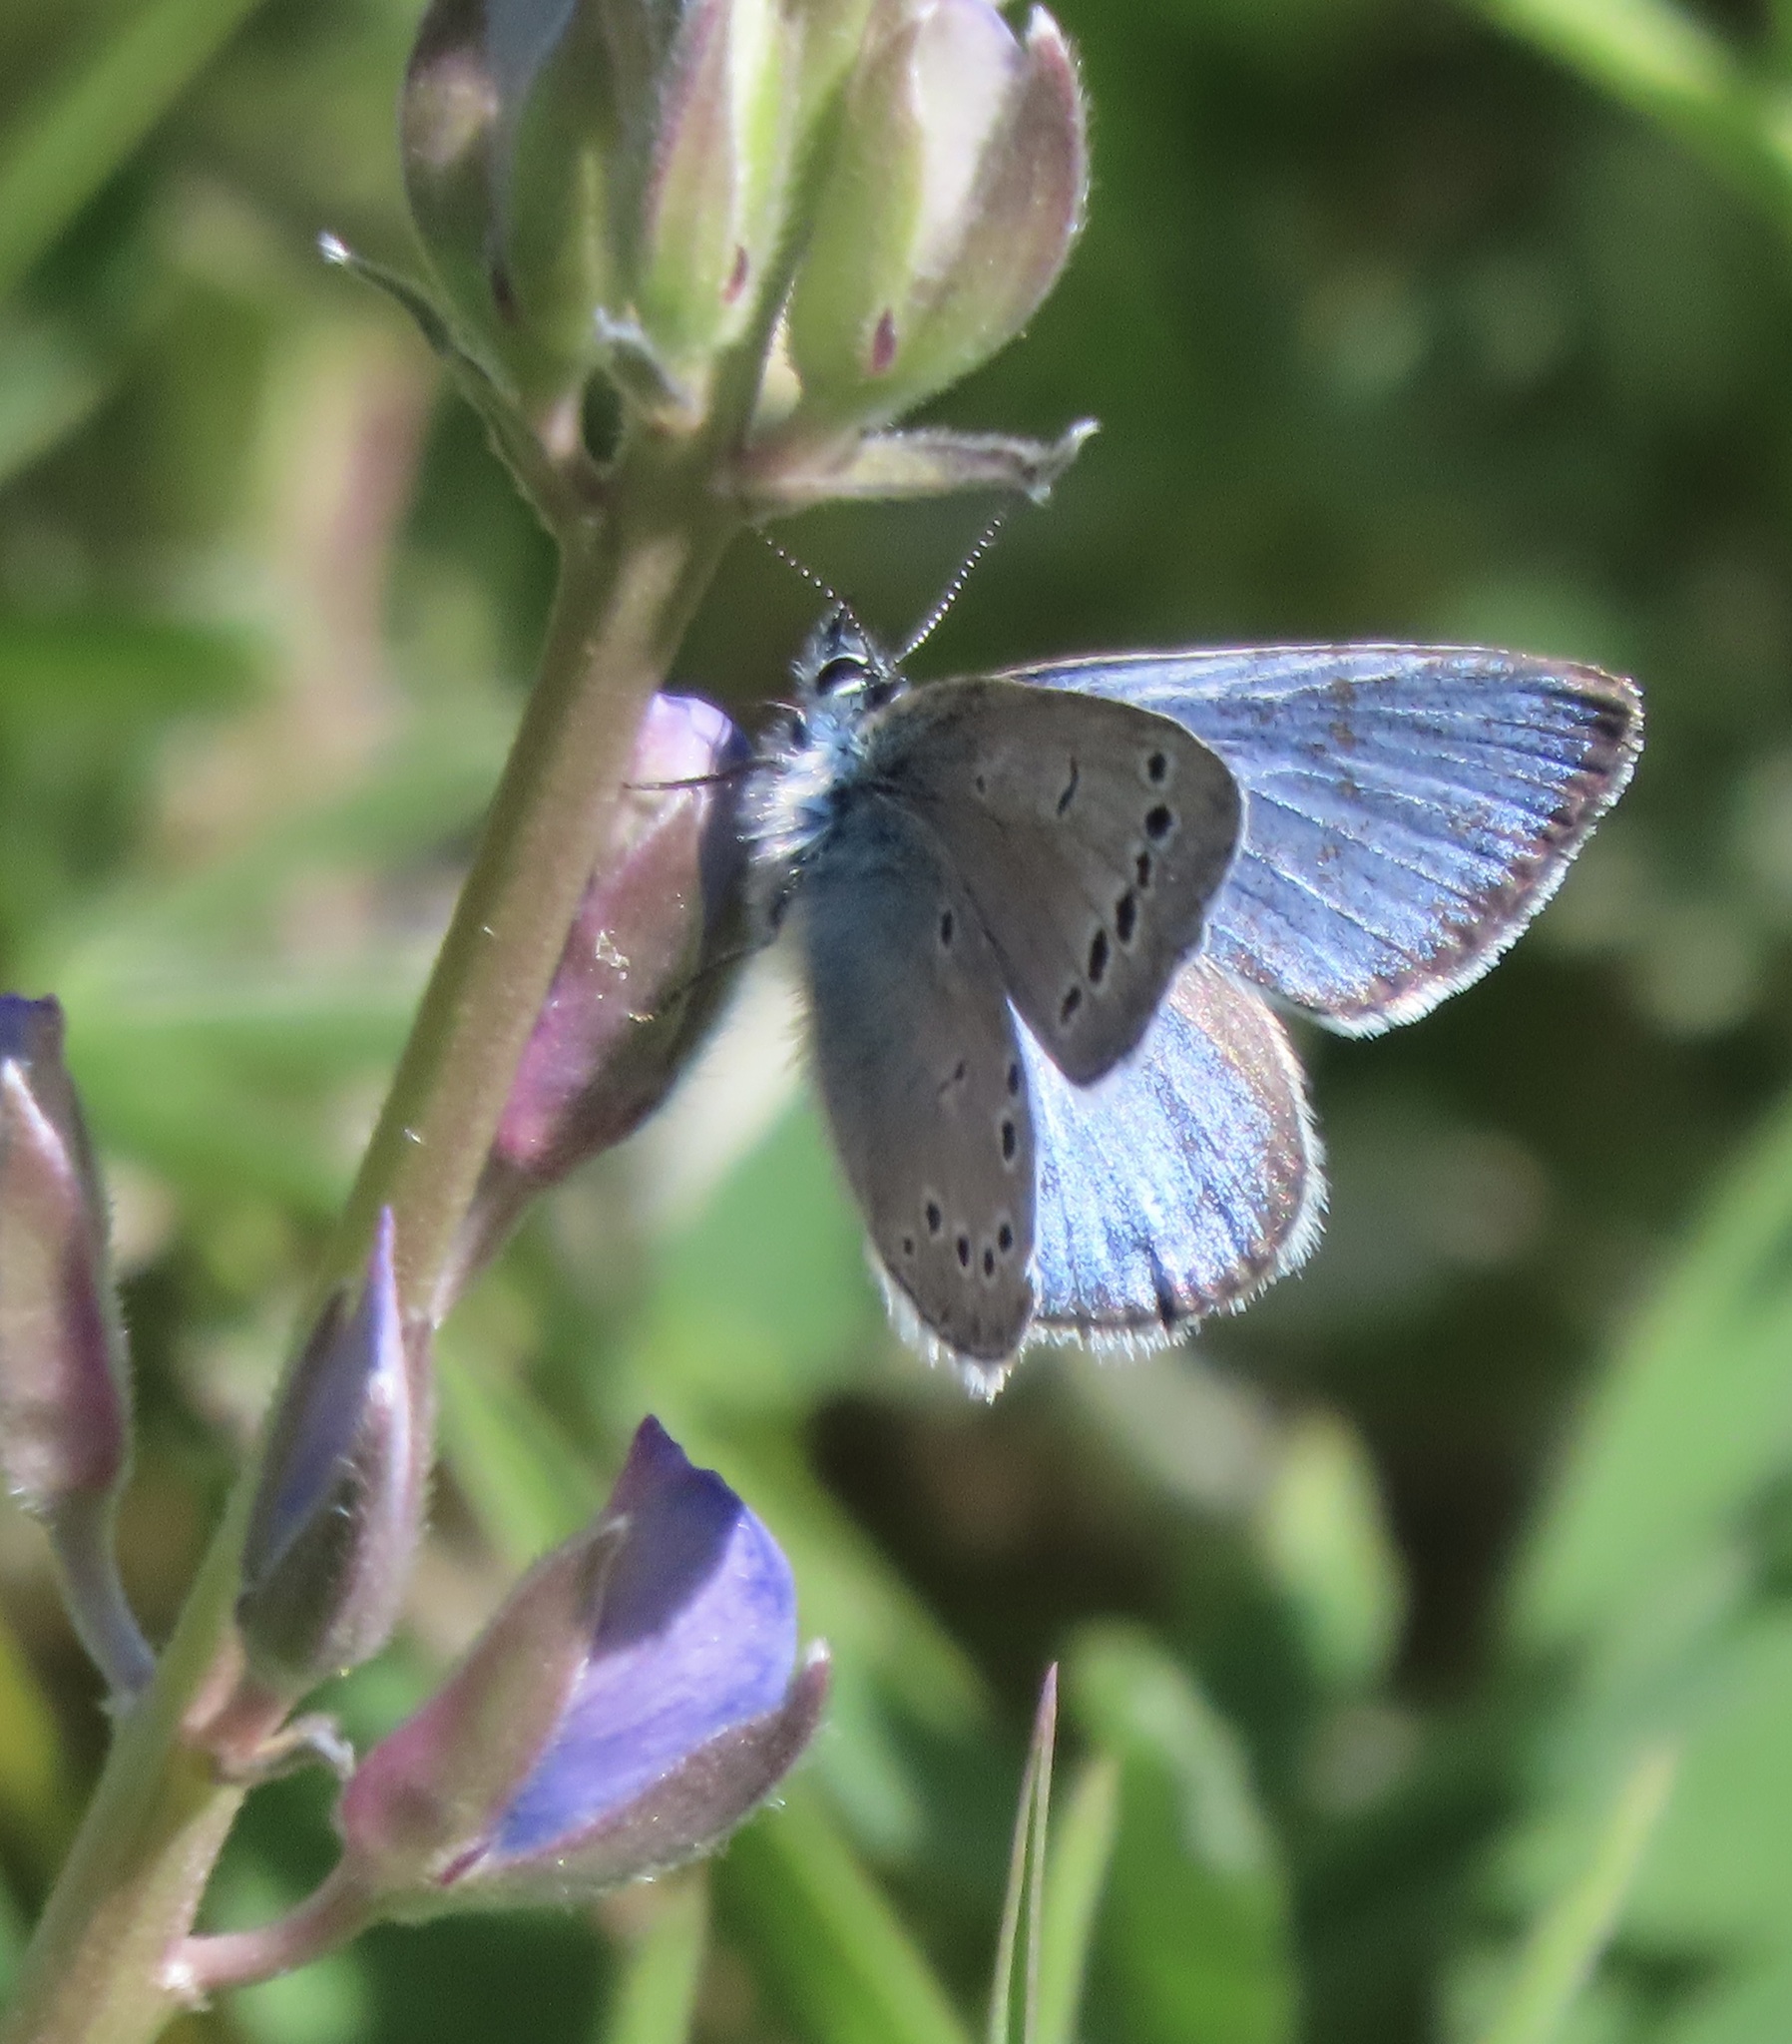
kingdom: Animalia
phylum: Arthropoda
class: Insecta
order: Lepidoptera
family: Lycaenidae
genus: Glaucopsyche
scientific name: Glaucopsyche lygdamus
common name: Silvery blue
